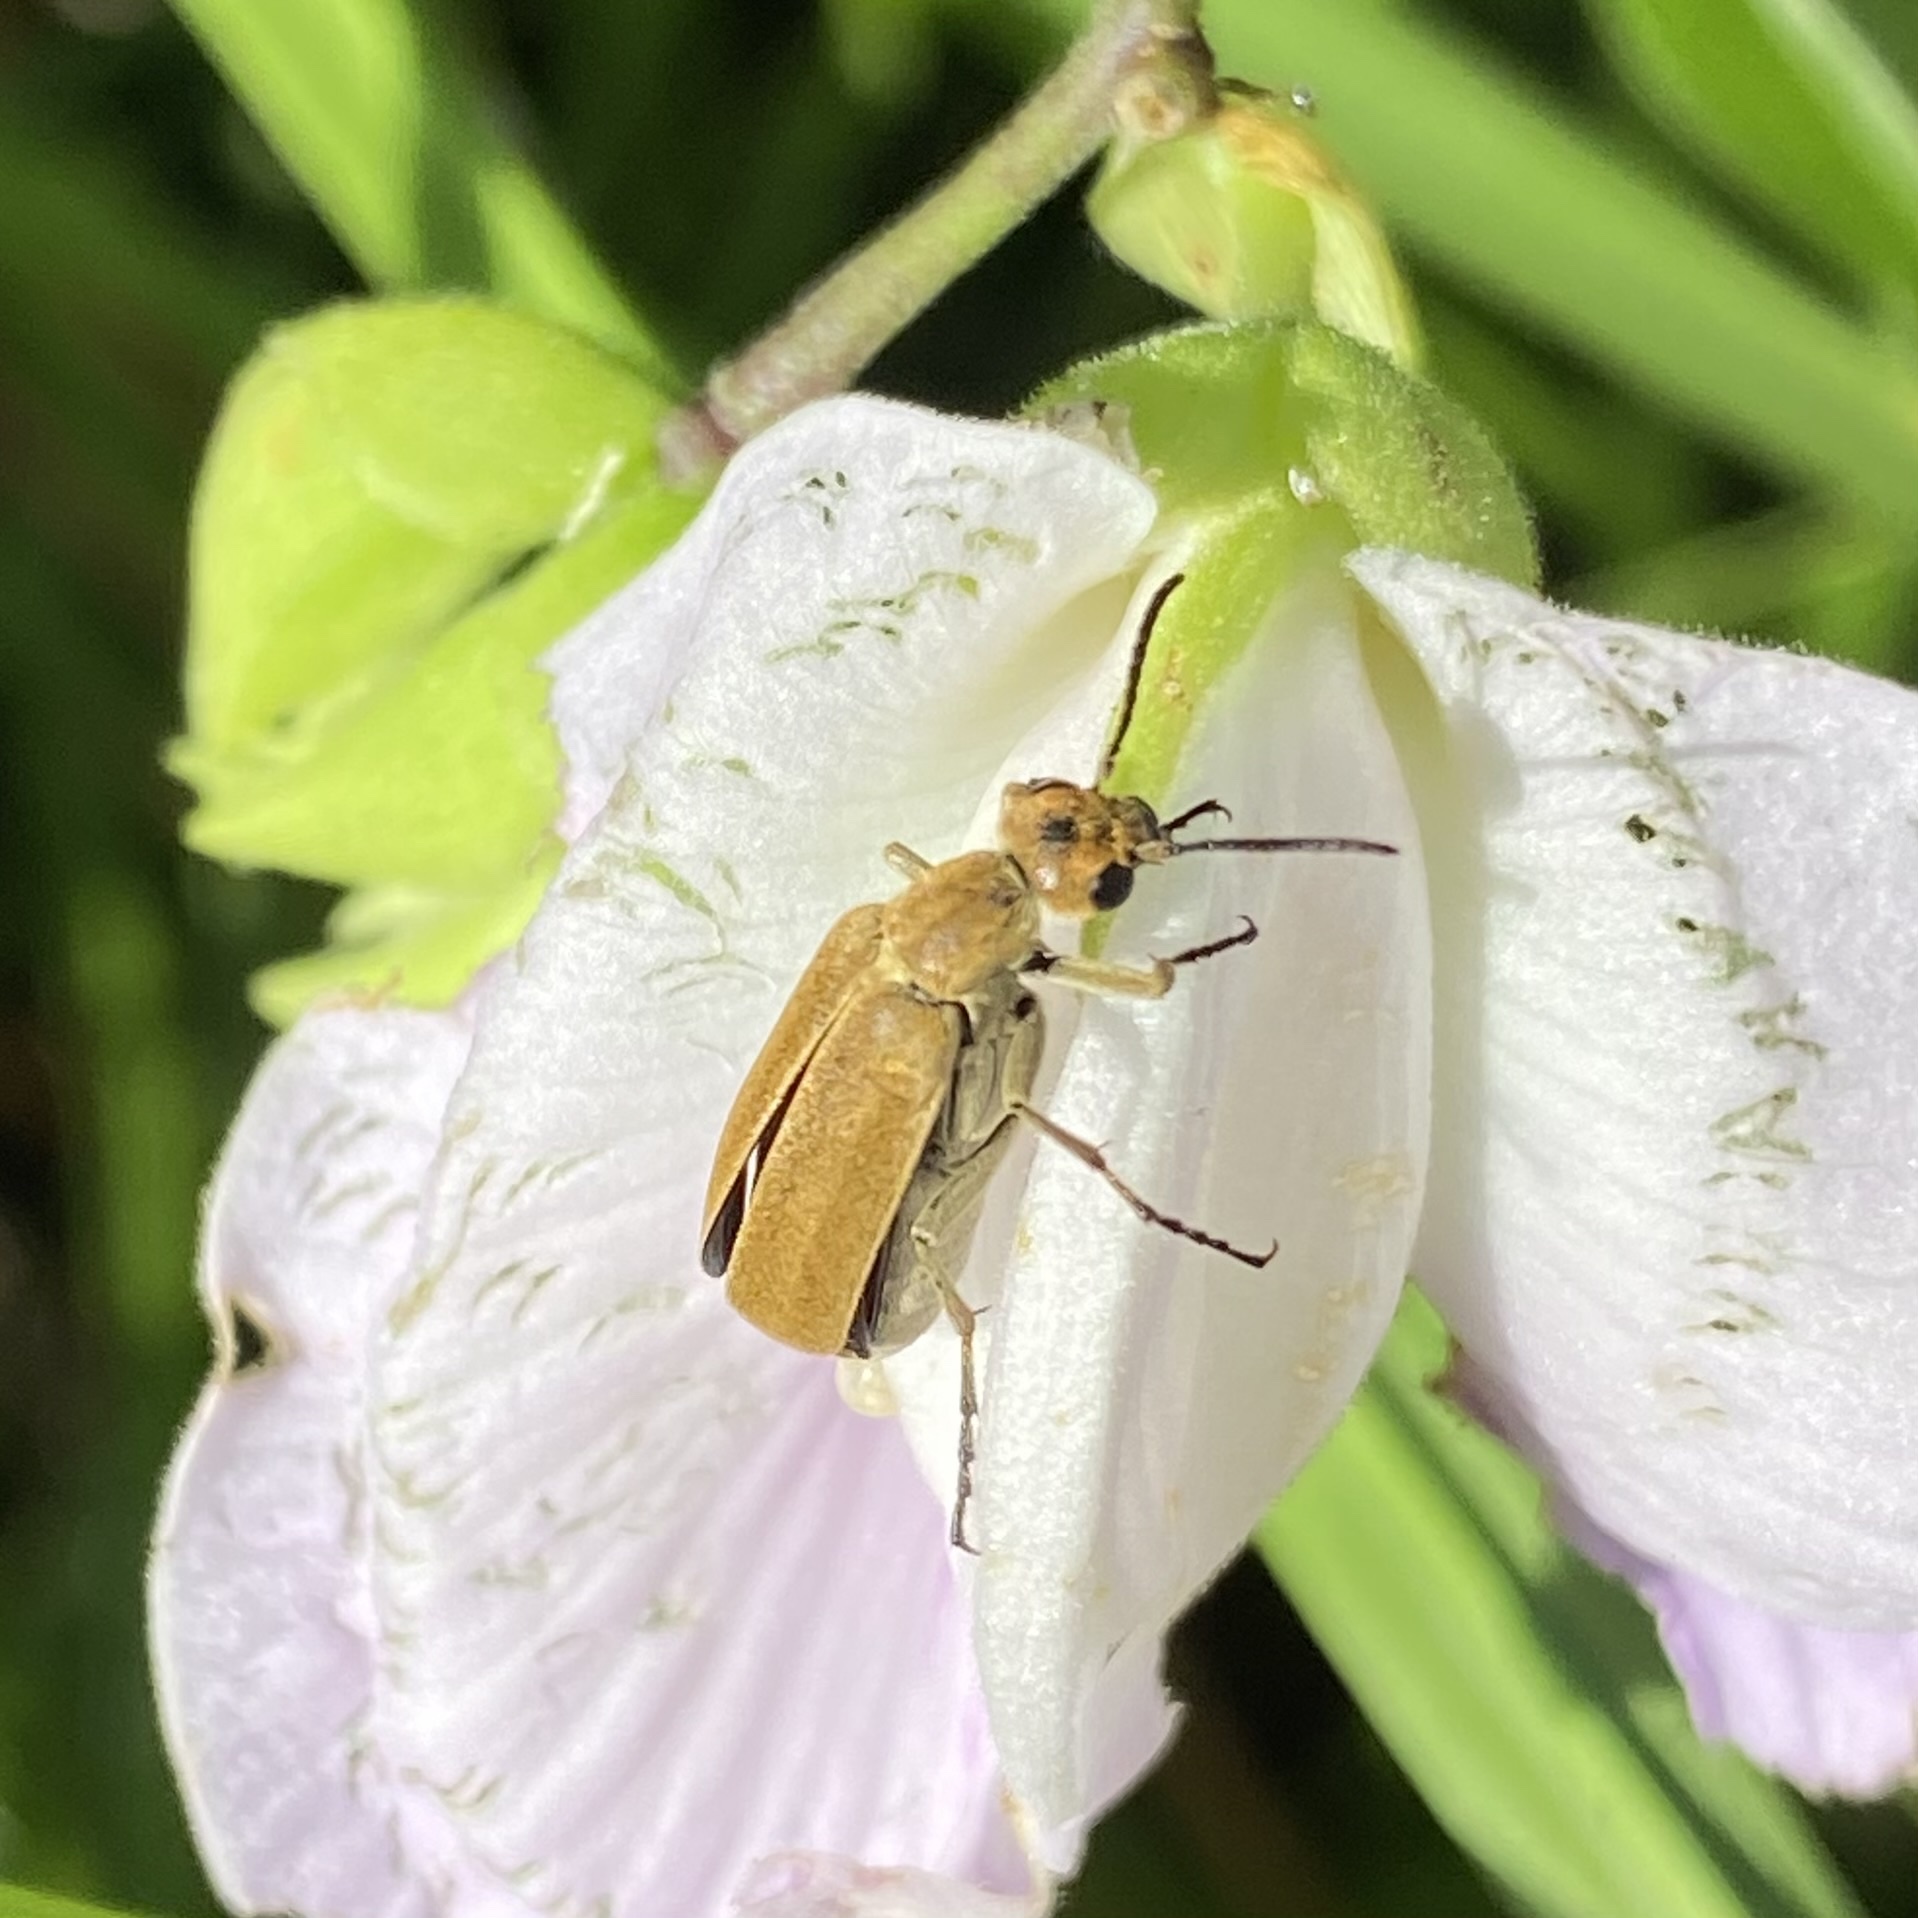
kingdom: Animalia
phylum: Arthropoda
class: Insecta
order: Coleoptera
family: Meloidae
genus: Epicauta
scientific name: Epicauta strigosa
